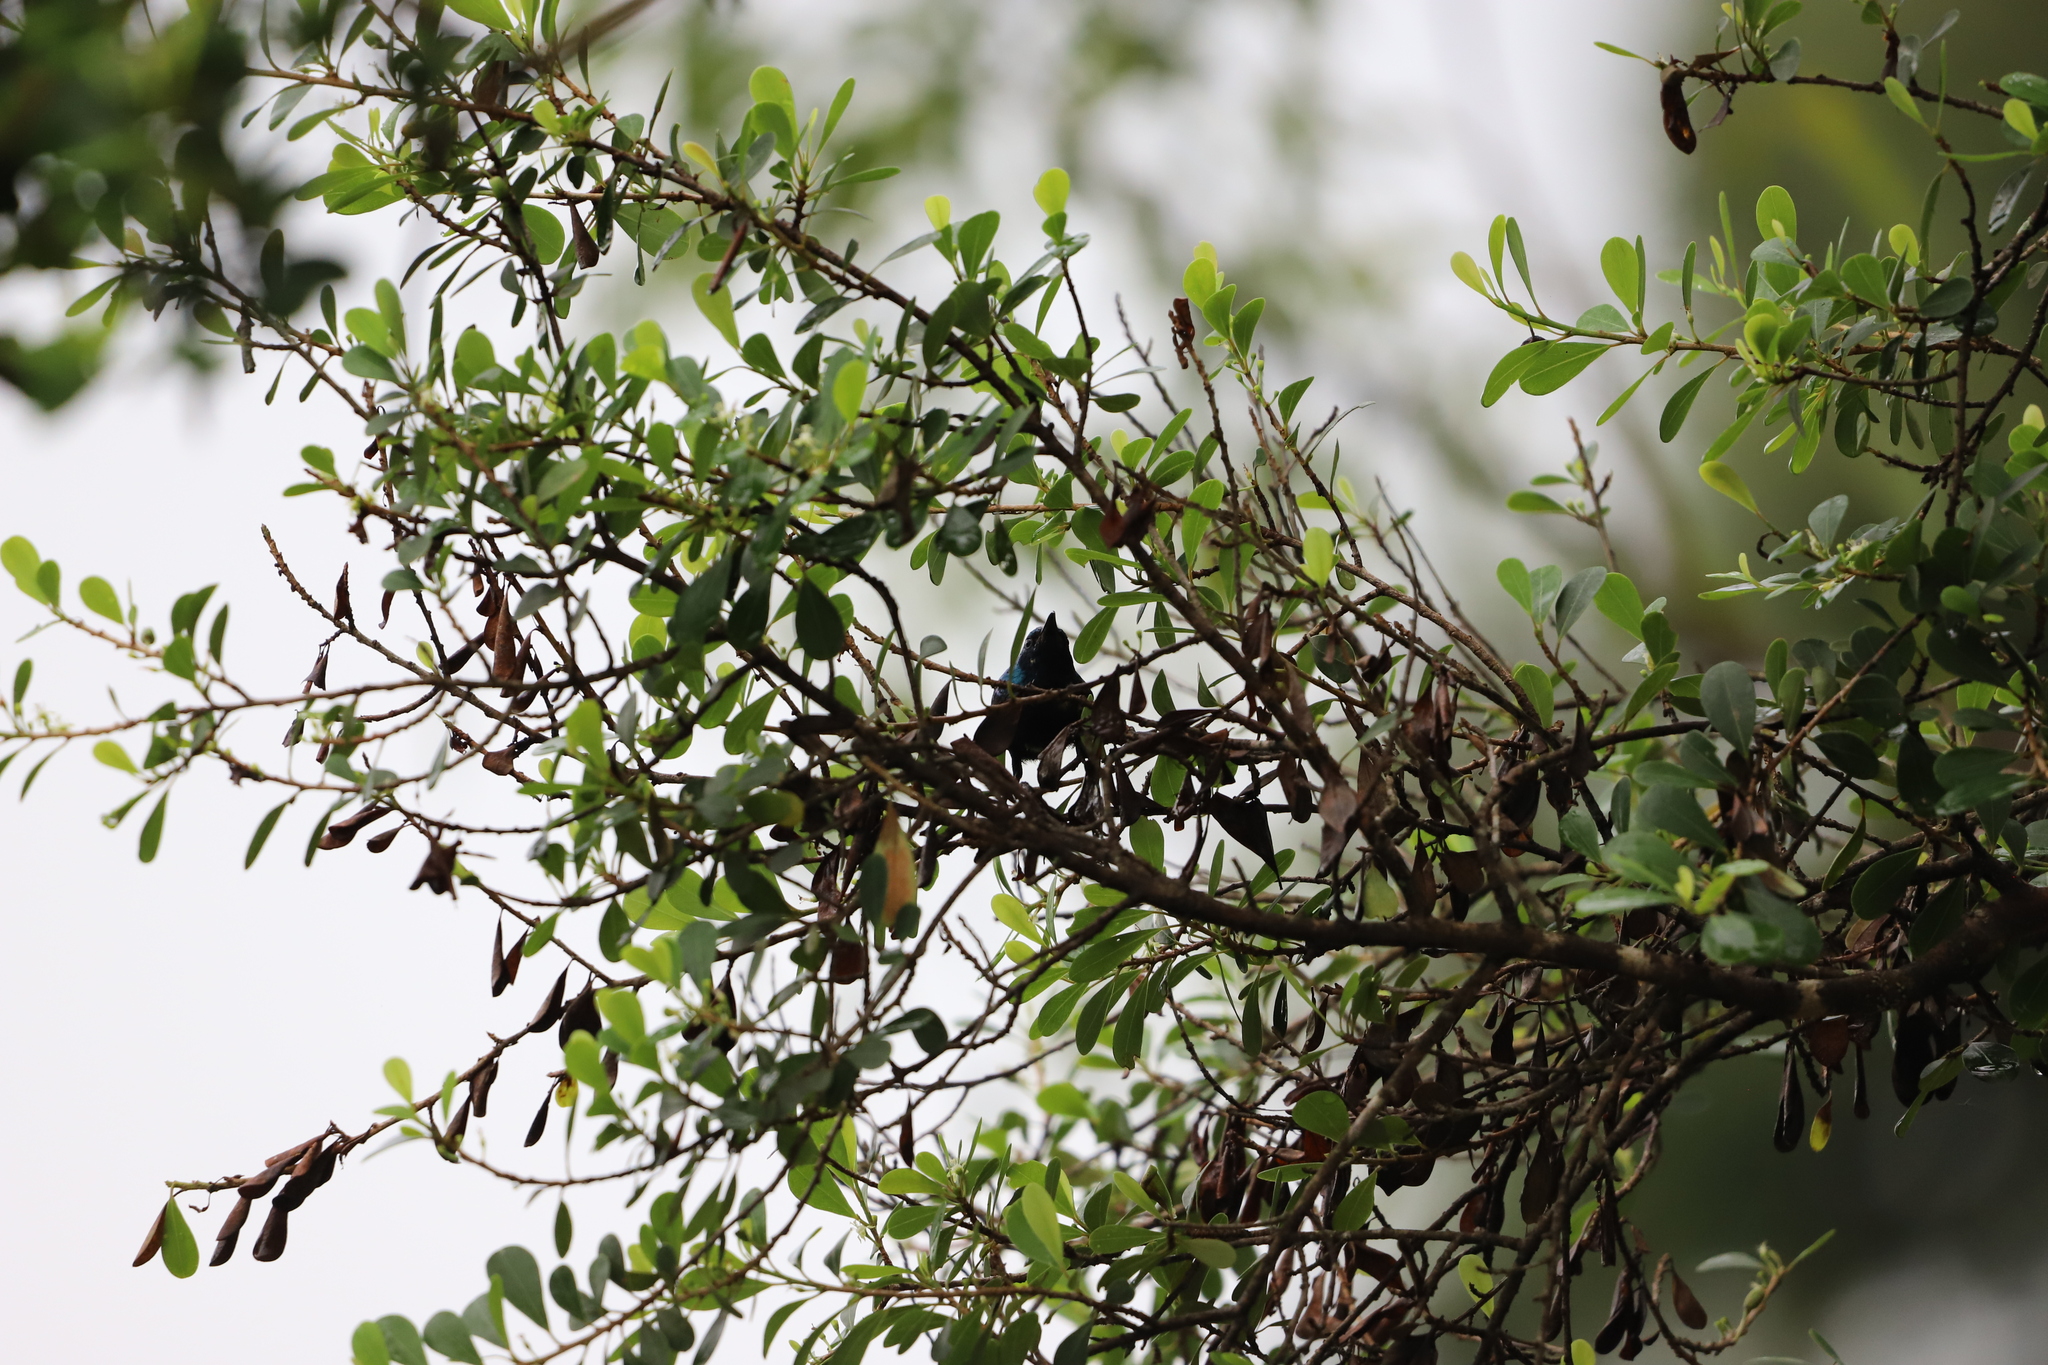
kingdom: Animalia
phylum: Chordata
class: Aves
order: Passeriformes
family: Nectariniidae
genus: Cinnyris
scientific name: Cinnyris asiaticus
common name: Purple sunbird
